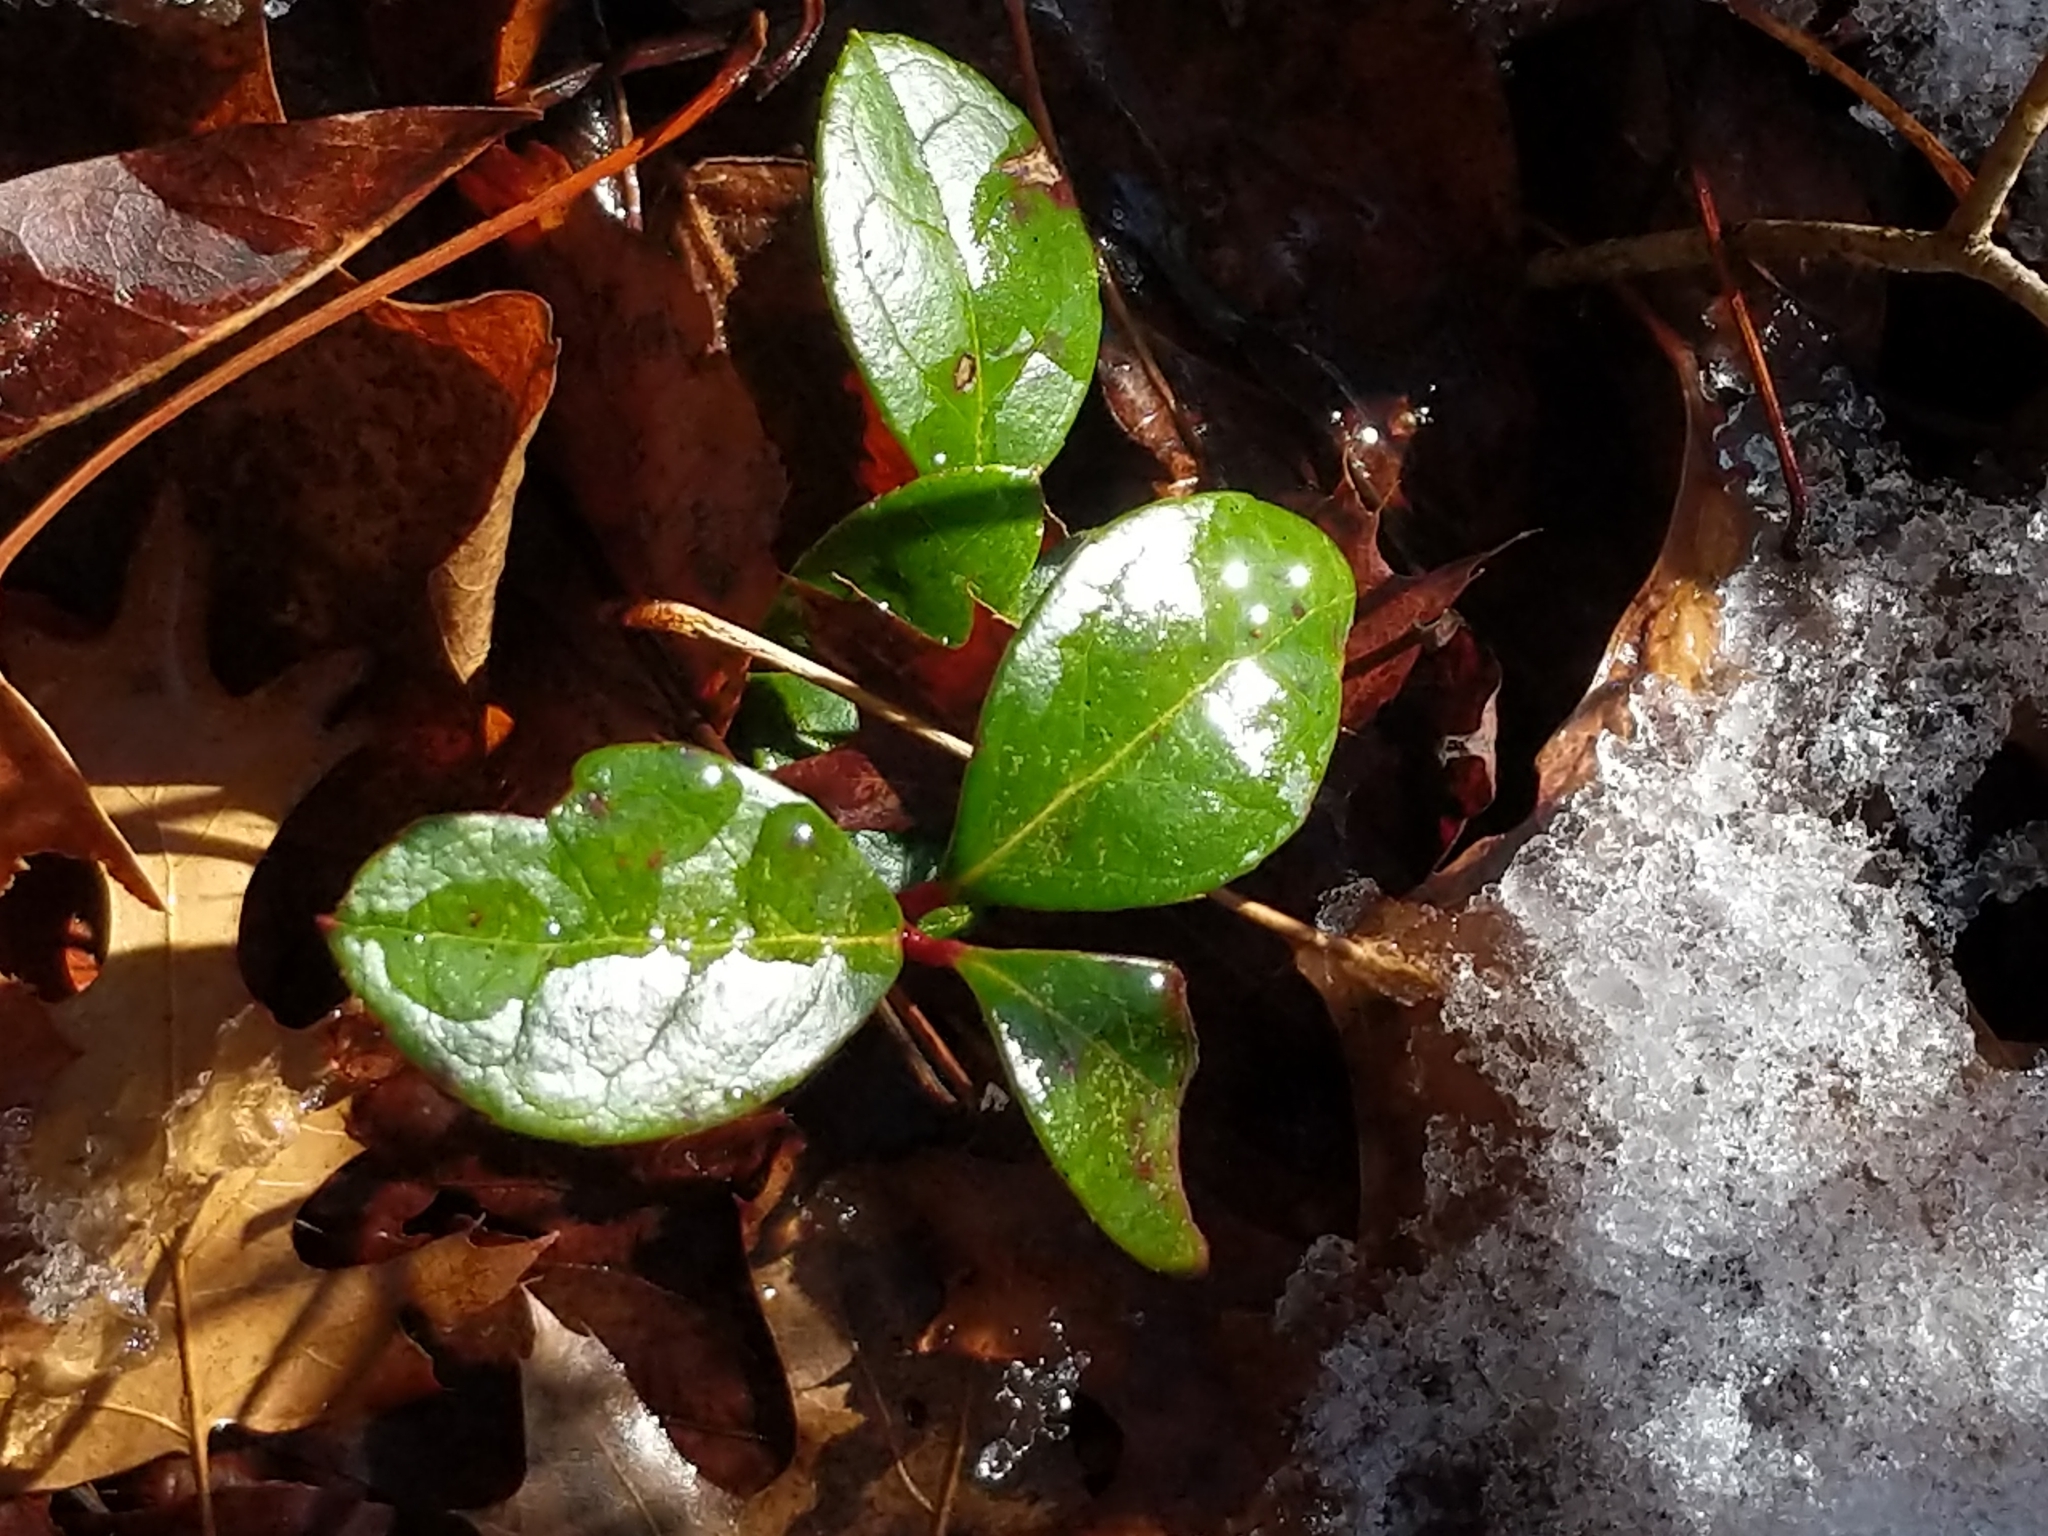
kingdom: Plantae
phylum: Tracheophyta
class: Magnoliopsida
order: Ericales
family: Ericaceae
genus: Gaultheria
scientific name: Gaultheria procumbens
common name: Checkerberry
